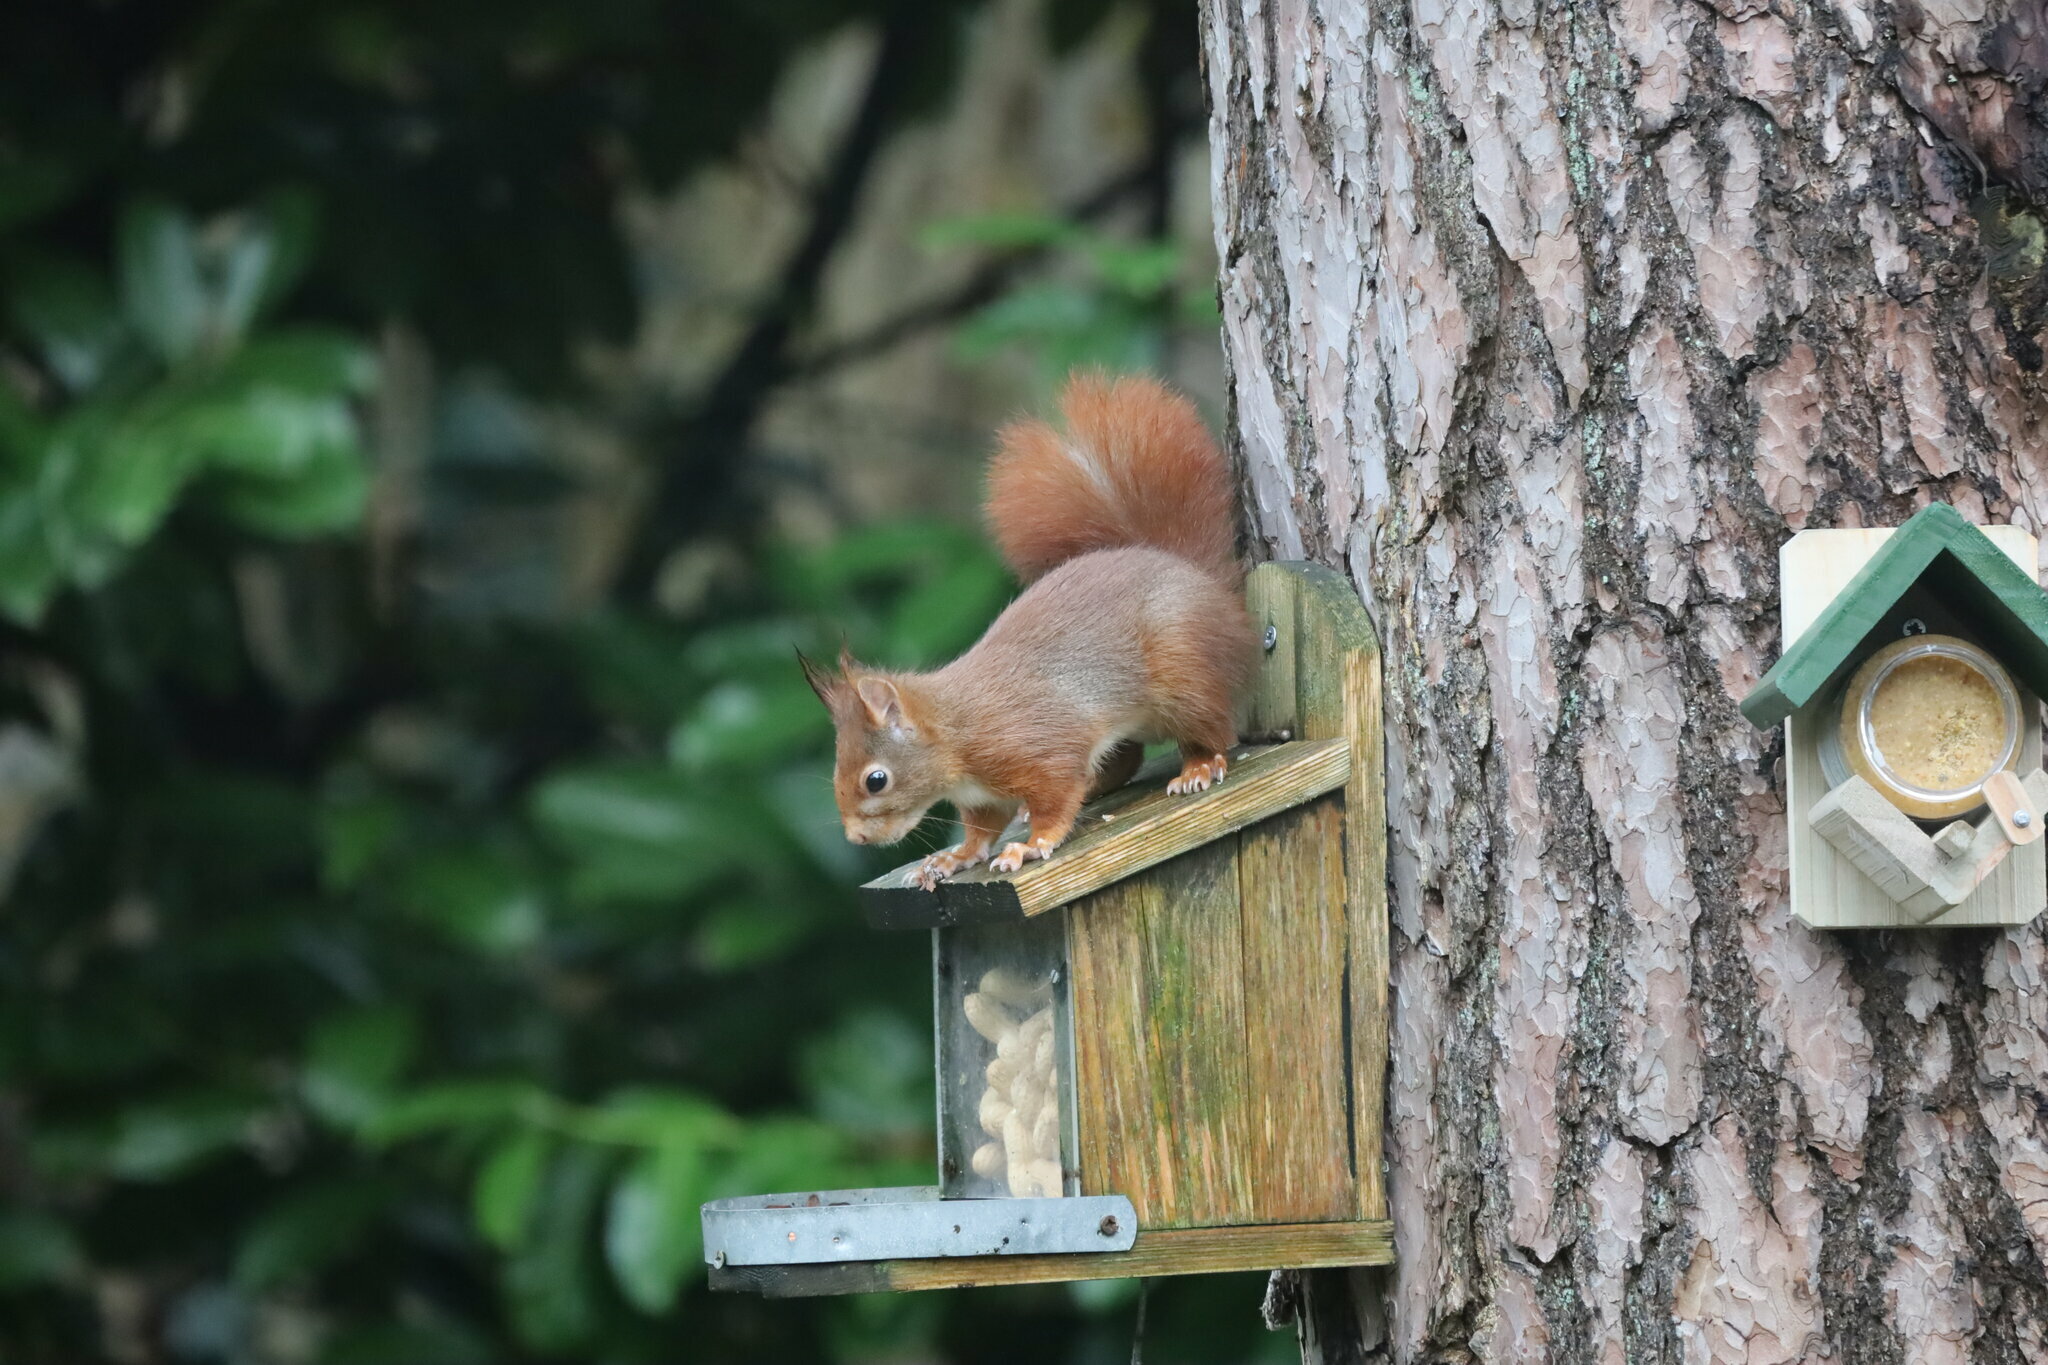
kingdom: Animalia
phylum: Chordata
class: Mammalia
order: Rodentia
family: Sciuridae
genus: Sciurus
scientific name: Sciurus vulgaris
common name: Eurasian red squirrel
